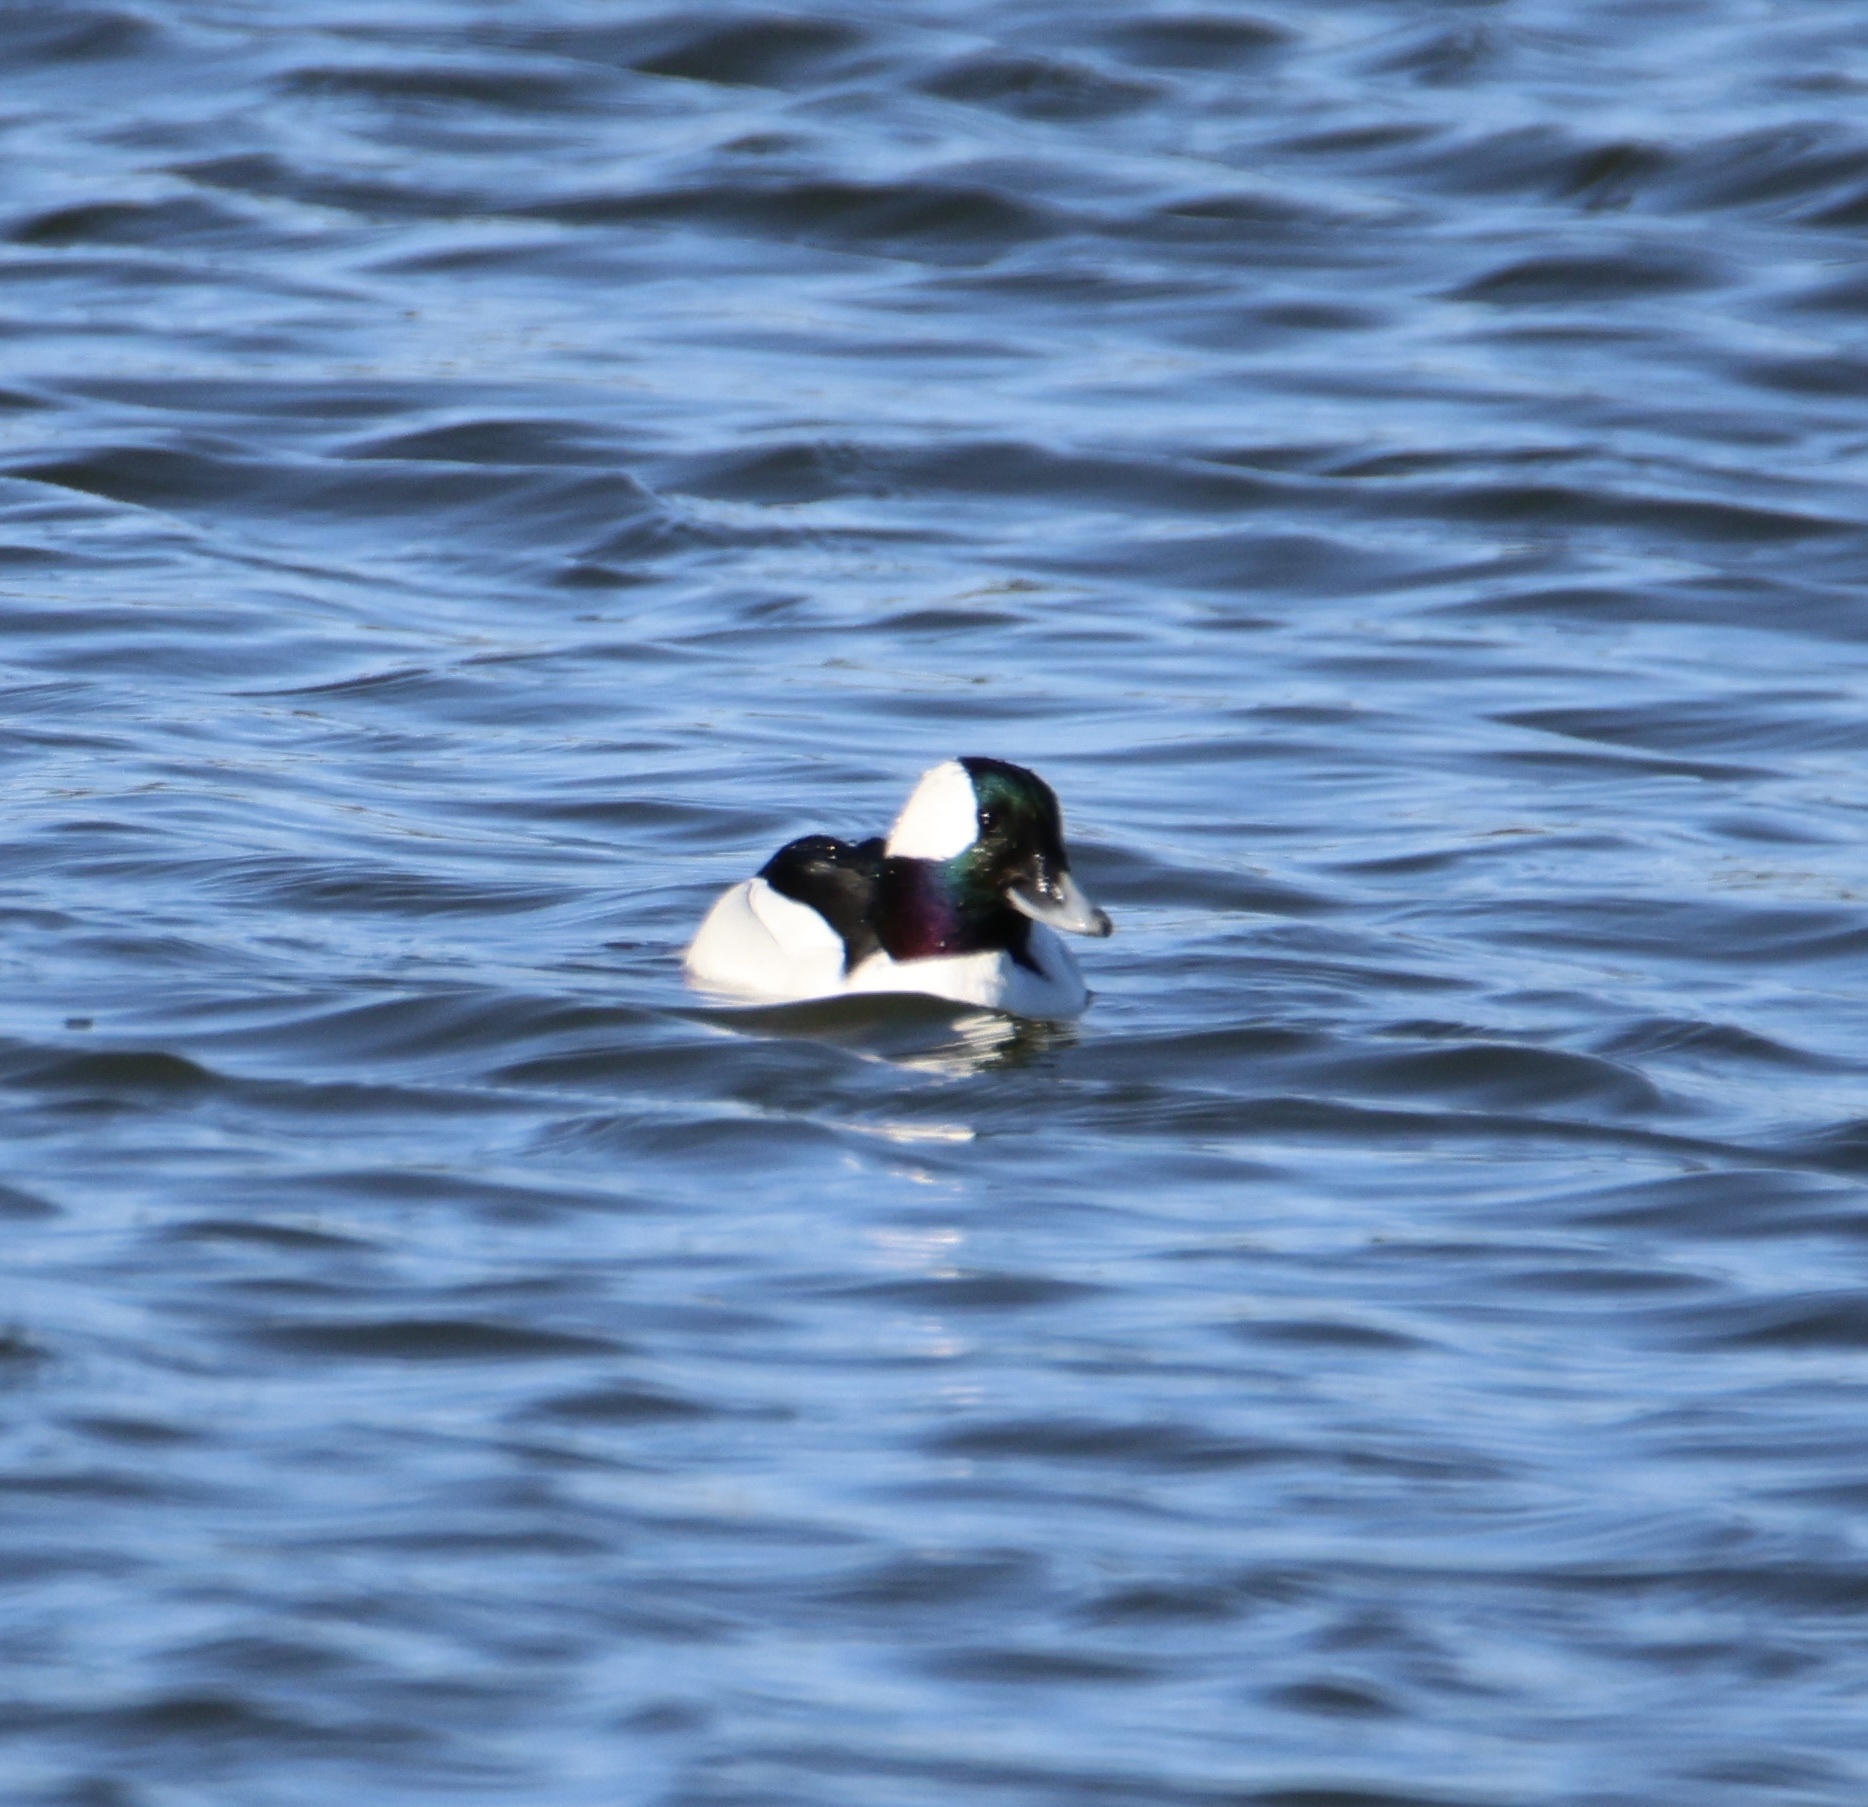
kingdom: Animalia
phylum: Chordata
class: Aves
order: Anseriformes
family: Anatidae
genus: Bucephala
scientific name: Bucephala albeola
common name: Bufflehead
